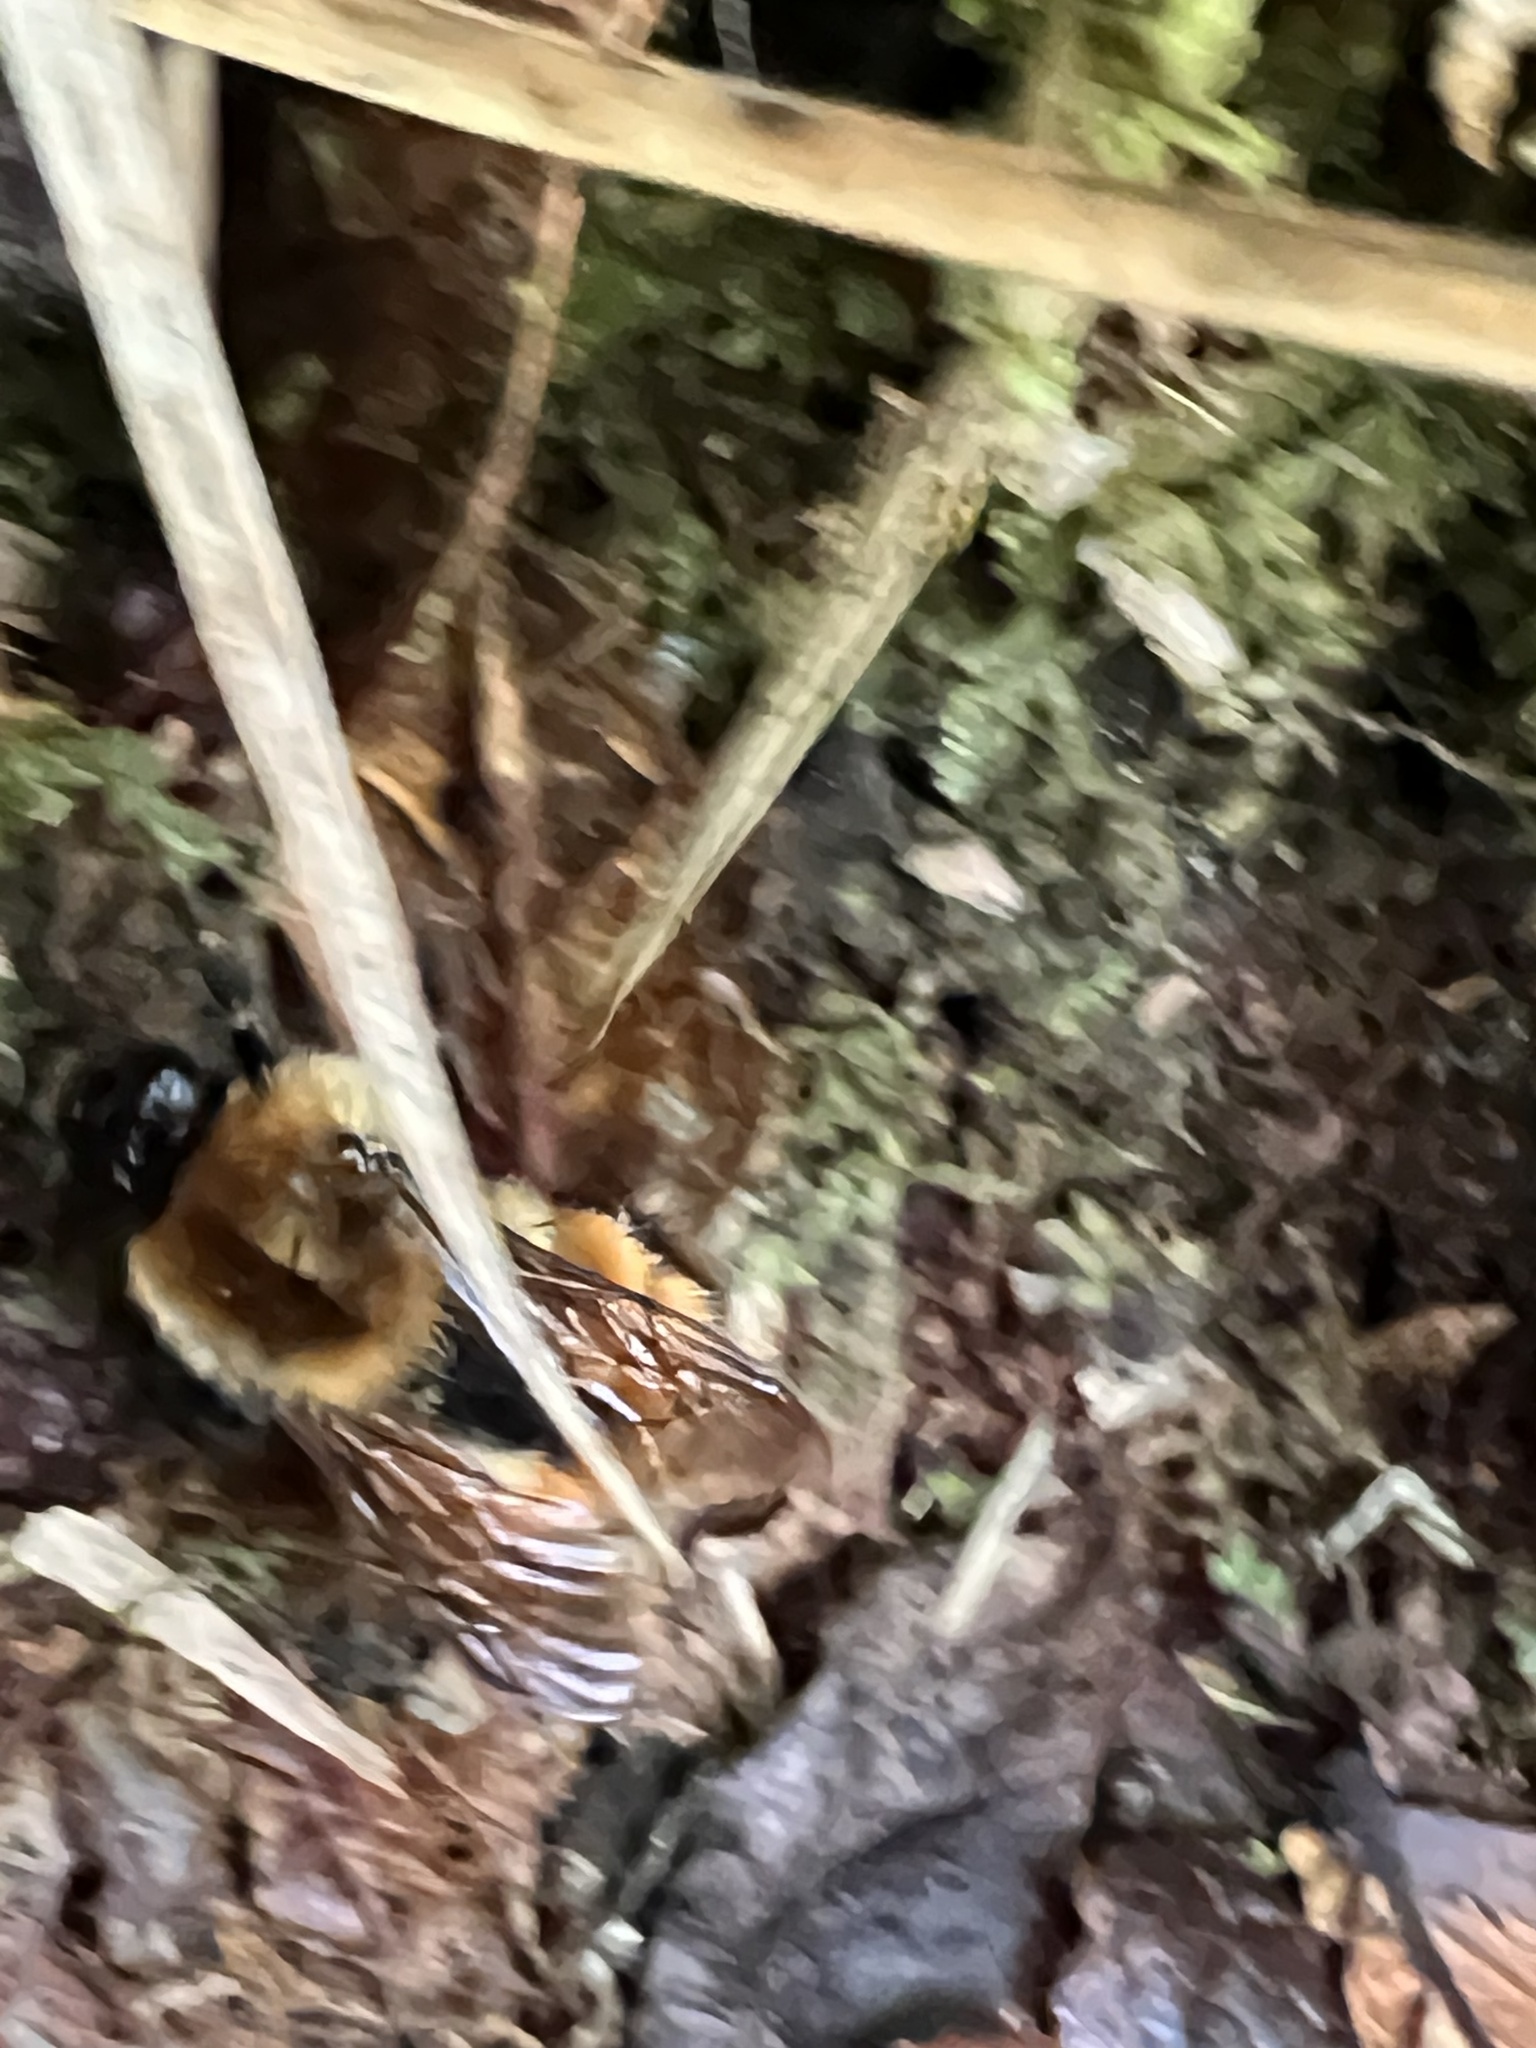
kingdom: Animalia
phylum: Arthropoda
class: Insecta
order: Hymenoptera
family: Apidae
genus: Bombus
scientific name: Bombus ephippiatus
